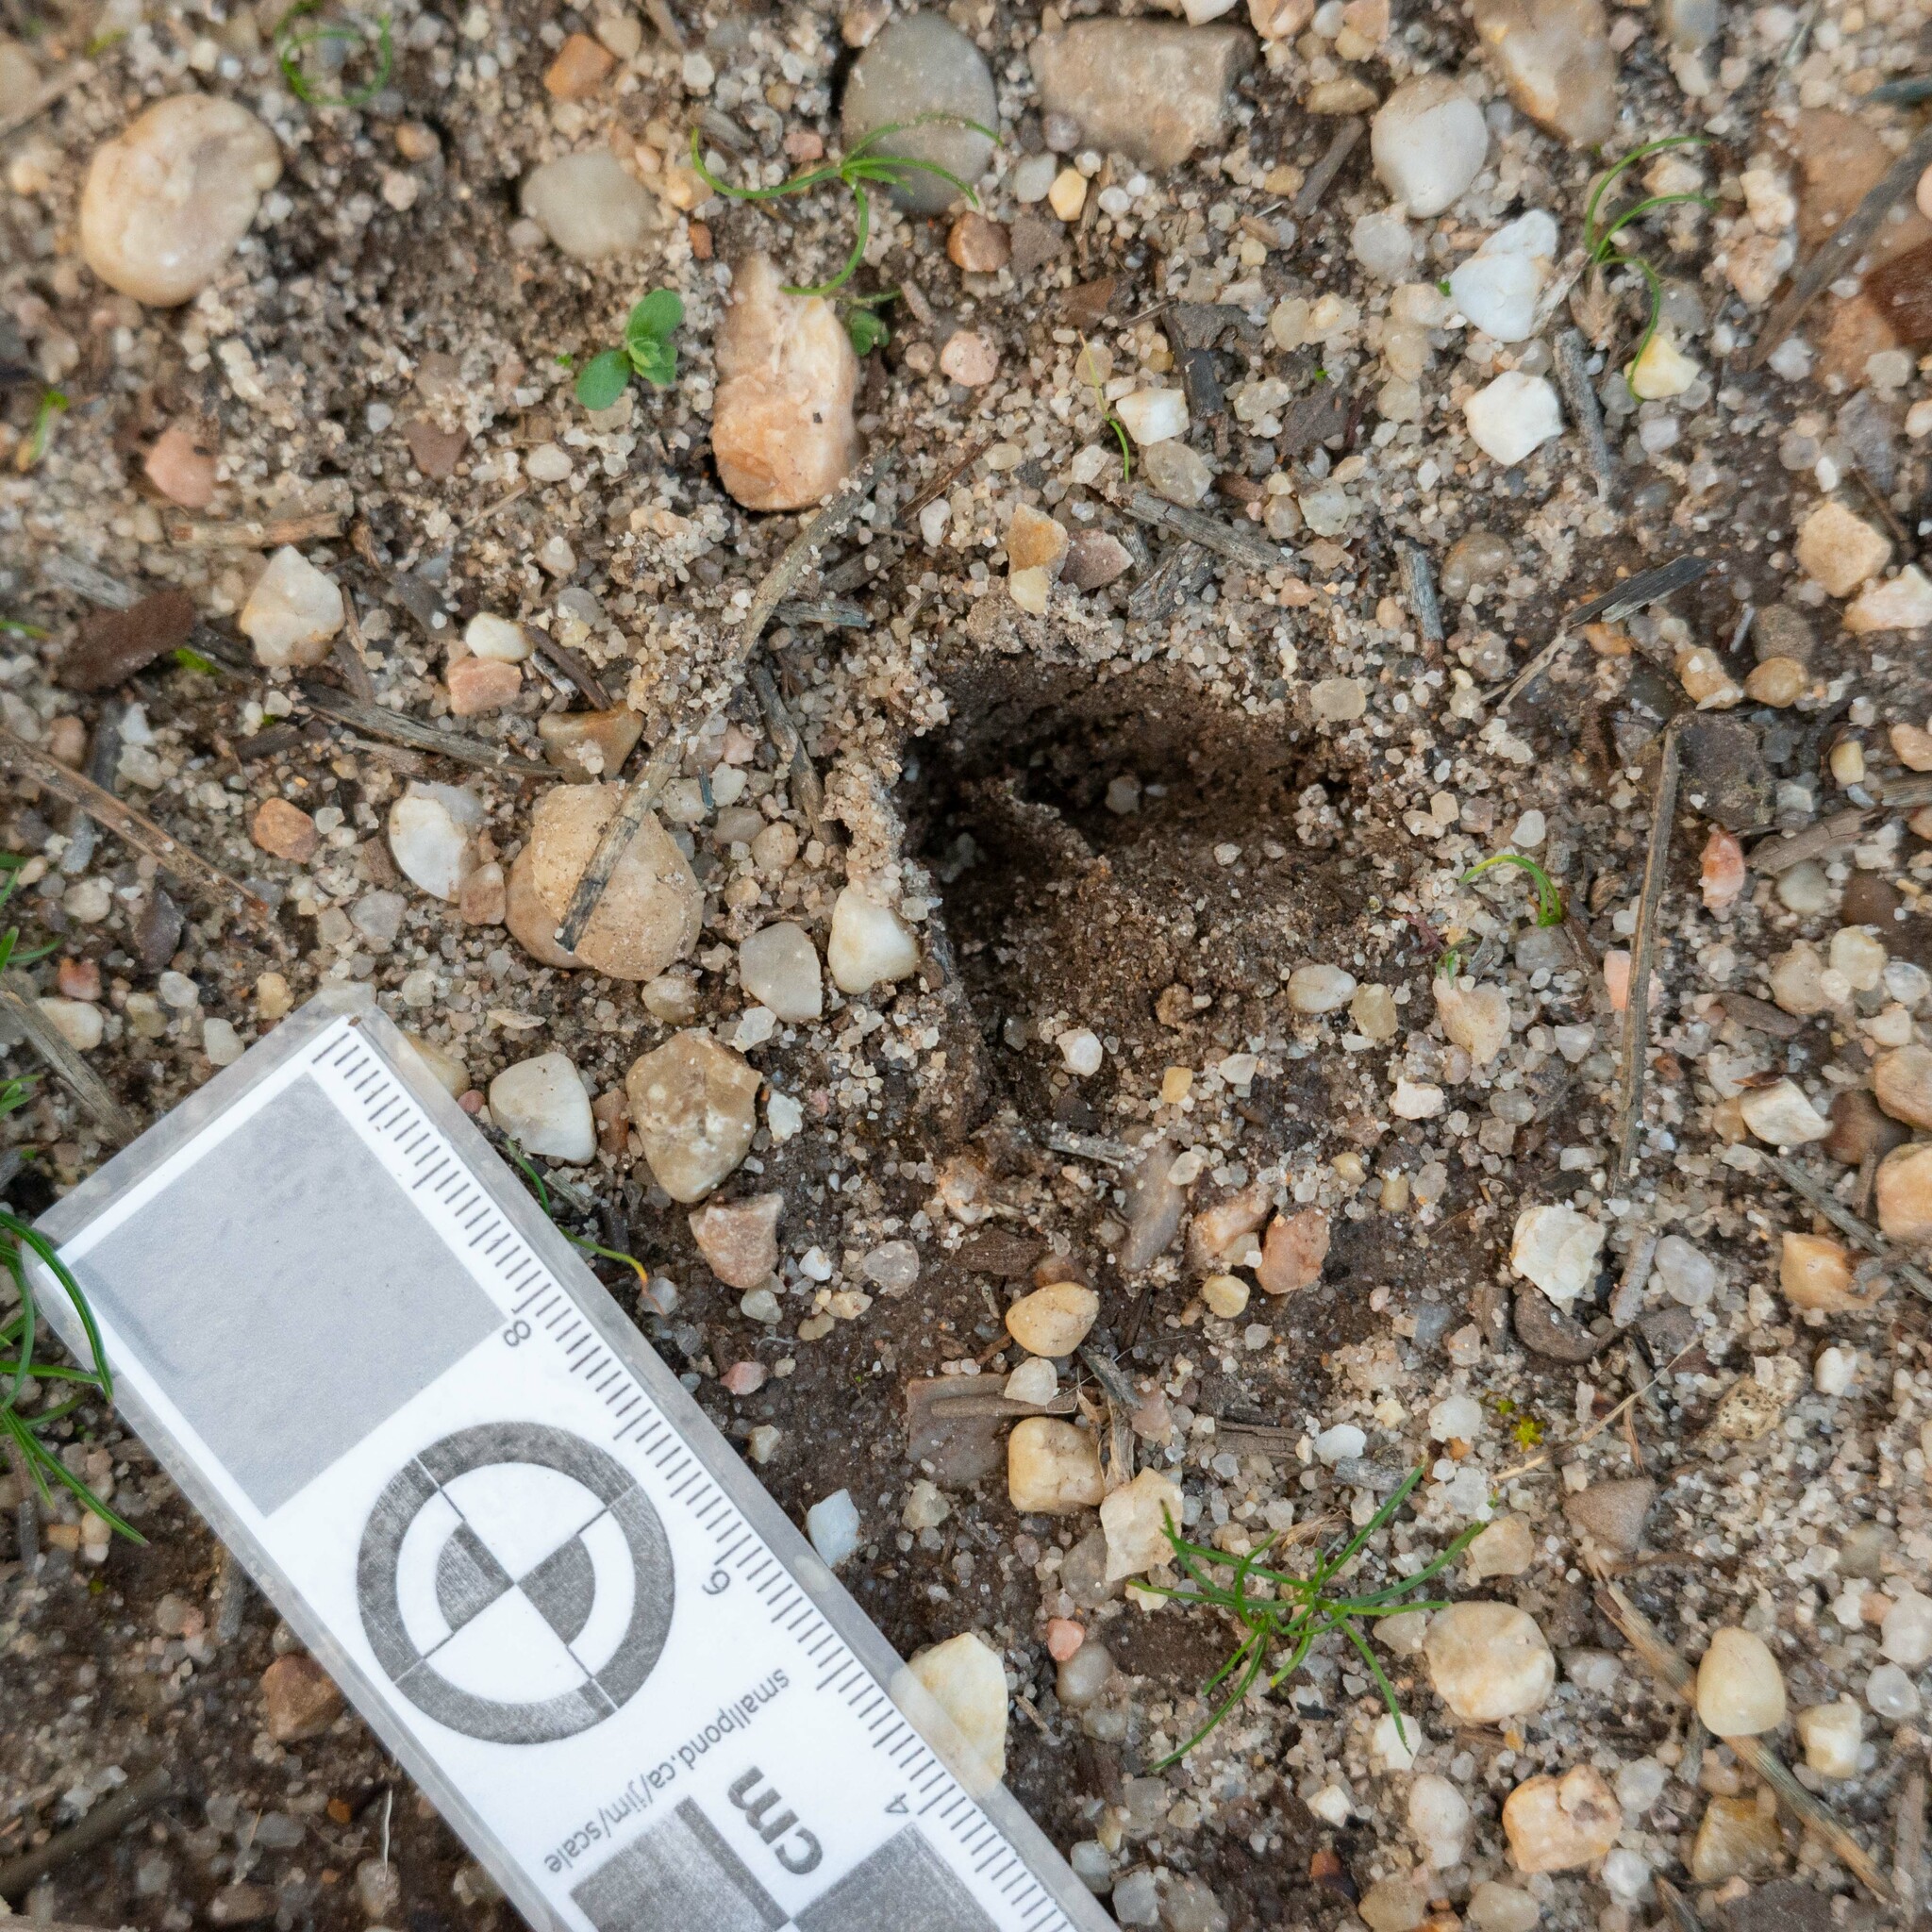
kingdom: Animalia
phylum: Chordata
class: Mammalia
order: Artiodactyla
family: Cervidae
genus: Capreolus
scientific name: Capreolus capreolus
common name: Western roe deer
